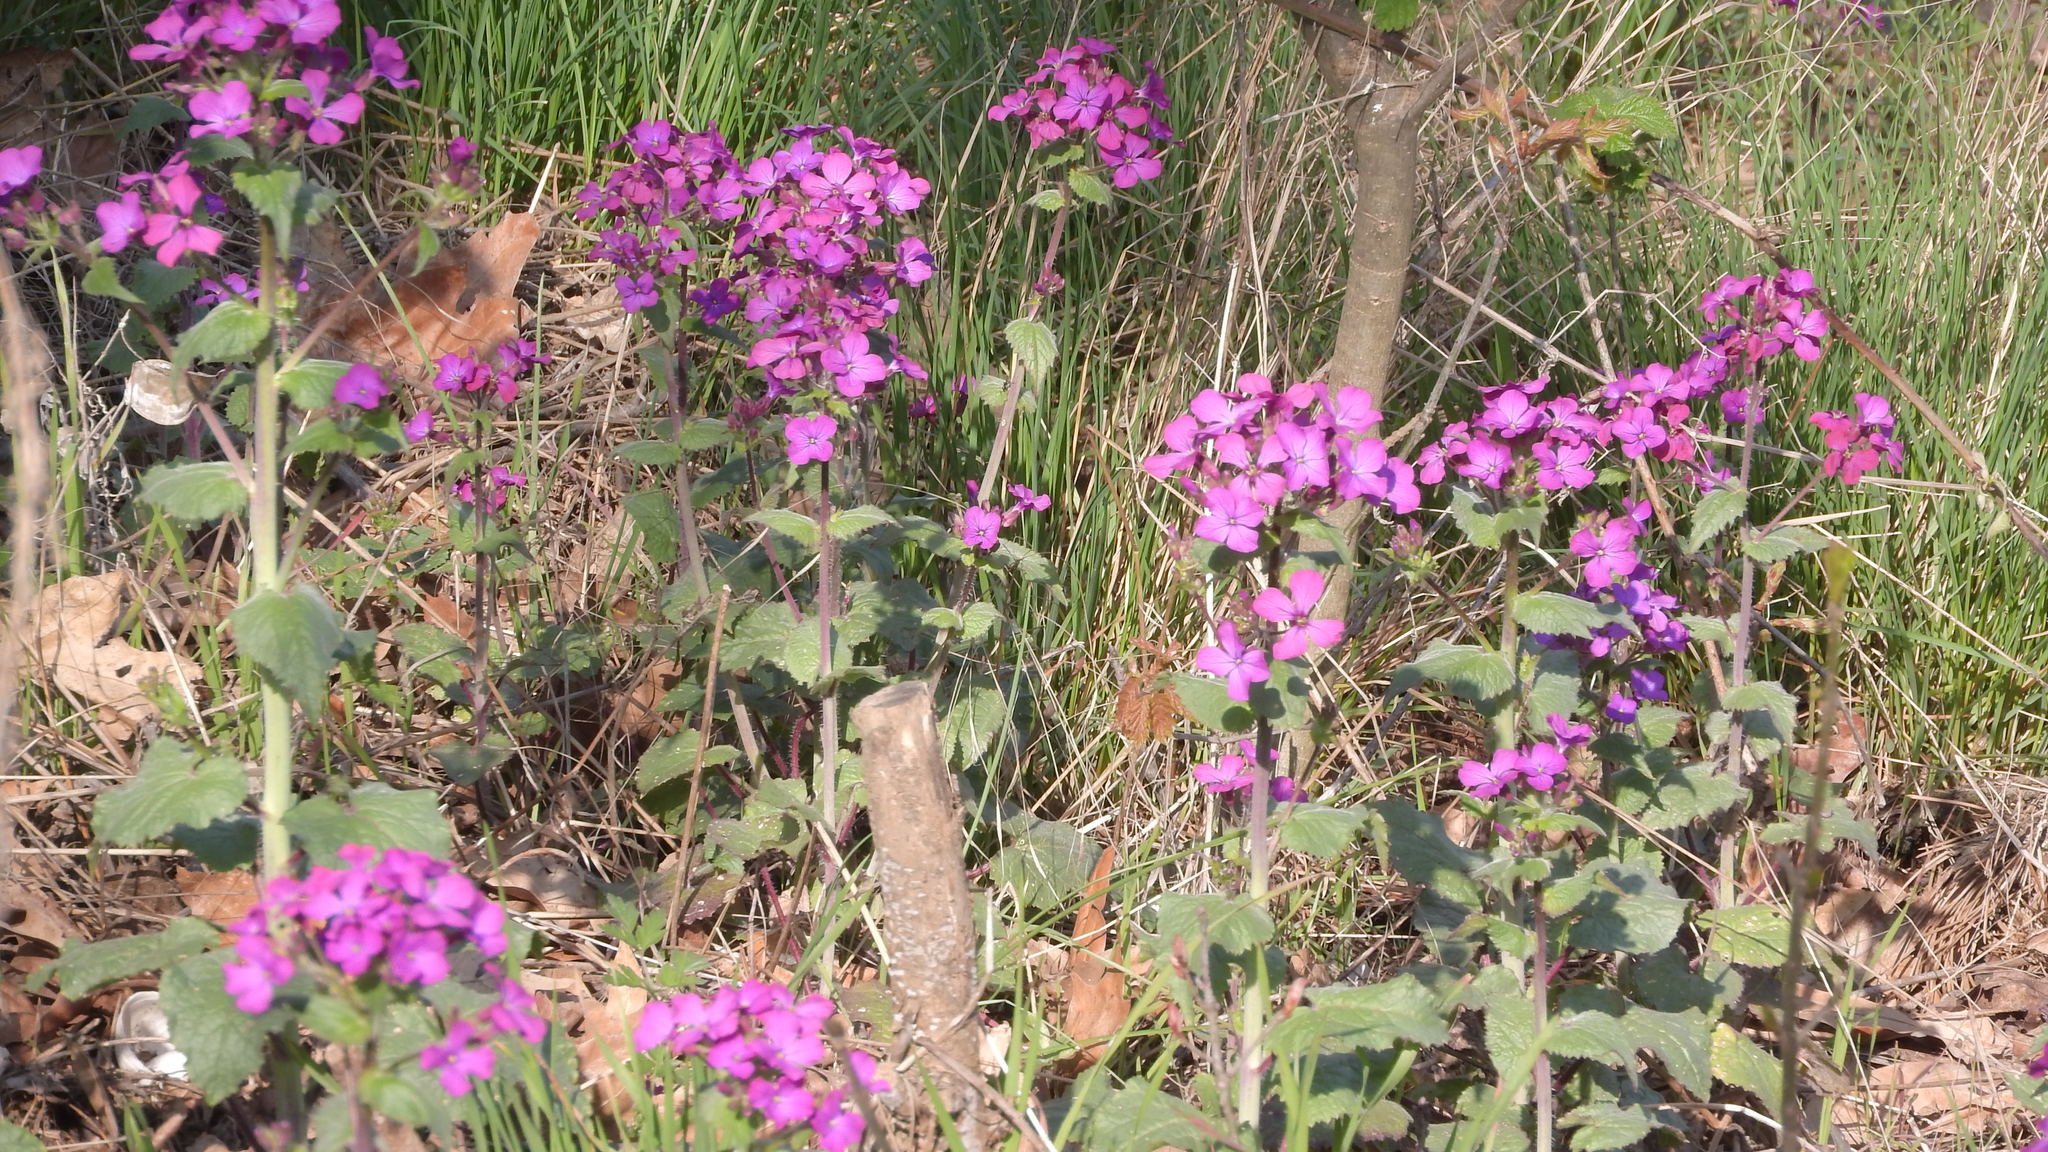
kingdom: Plantae
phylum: Tracheophyta
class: Magnoliopsida
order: Brassicales
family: Brassicaceae
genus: Lunaria
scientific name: Lunaria annua
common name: Honesty
